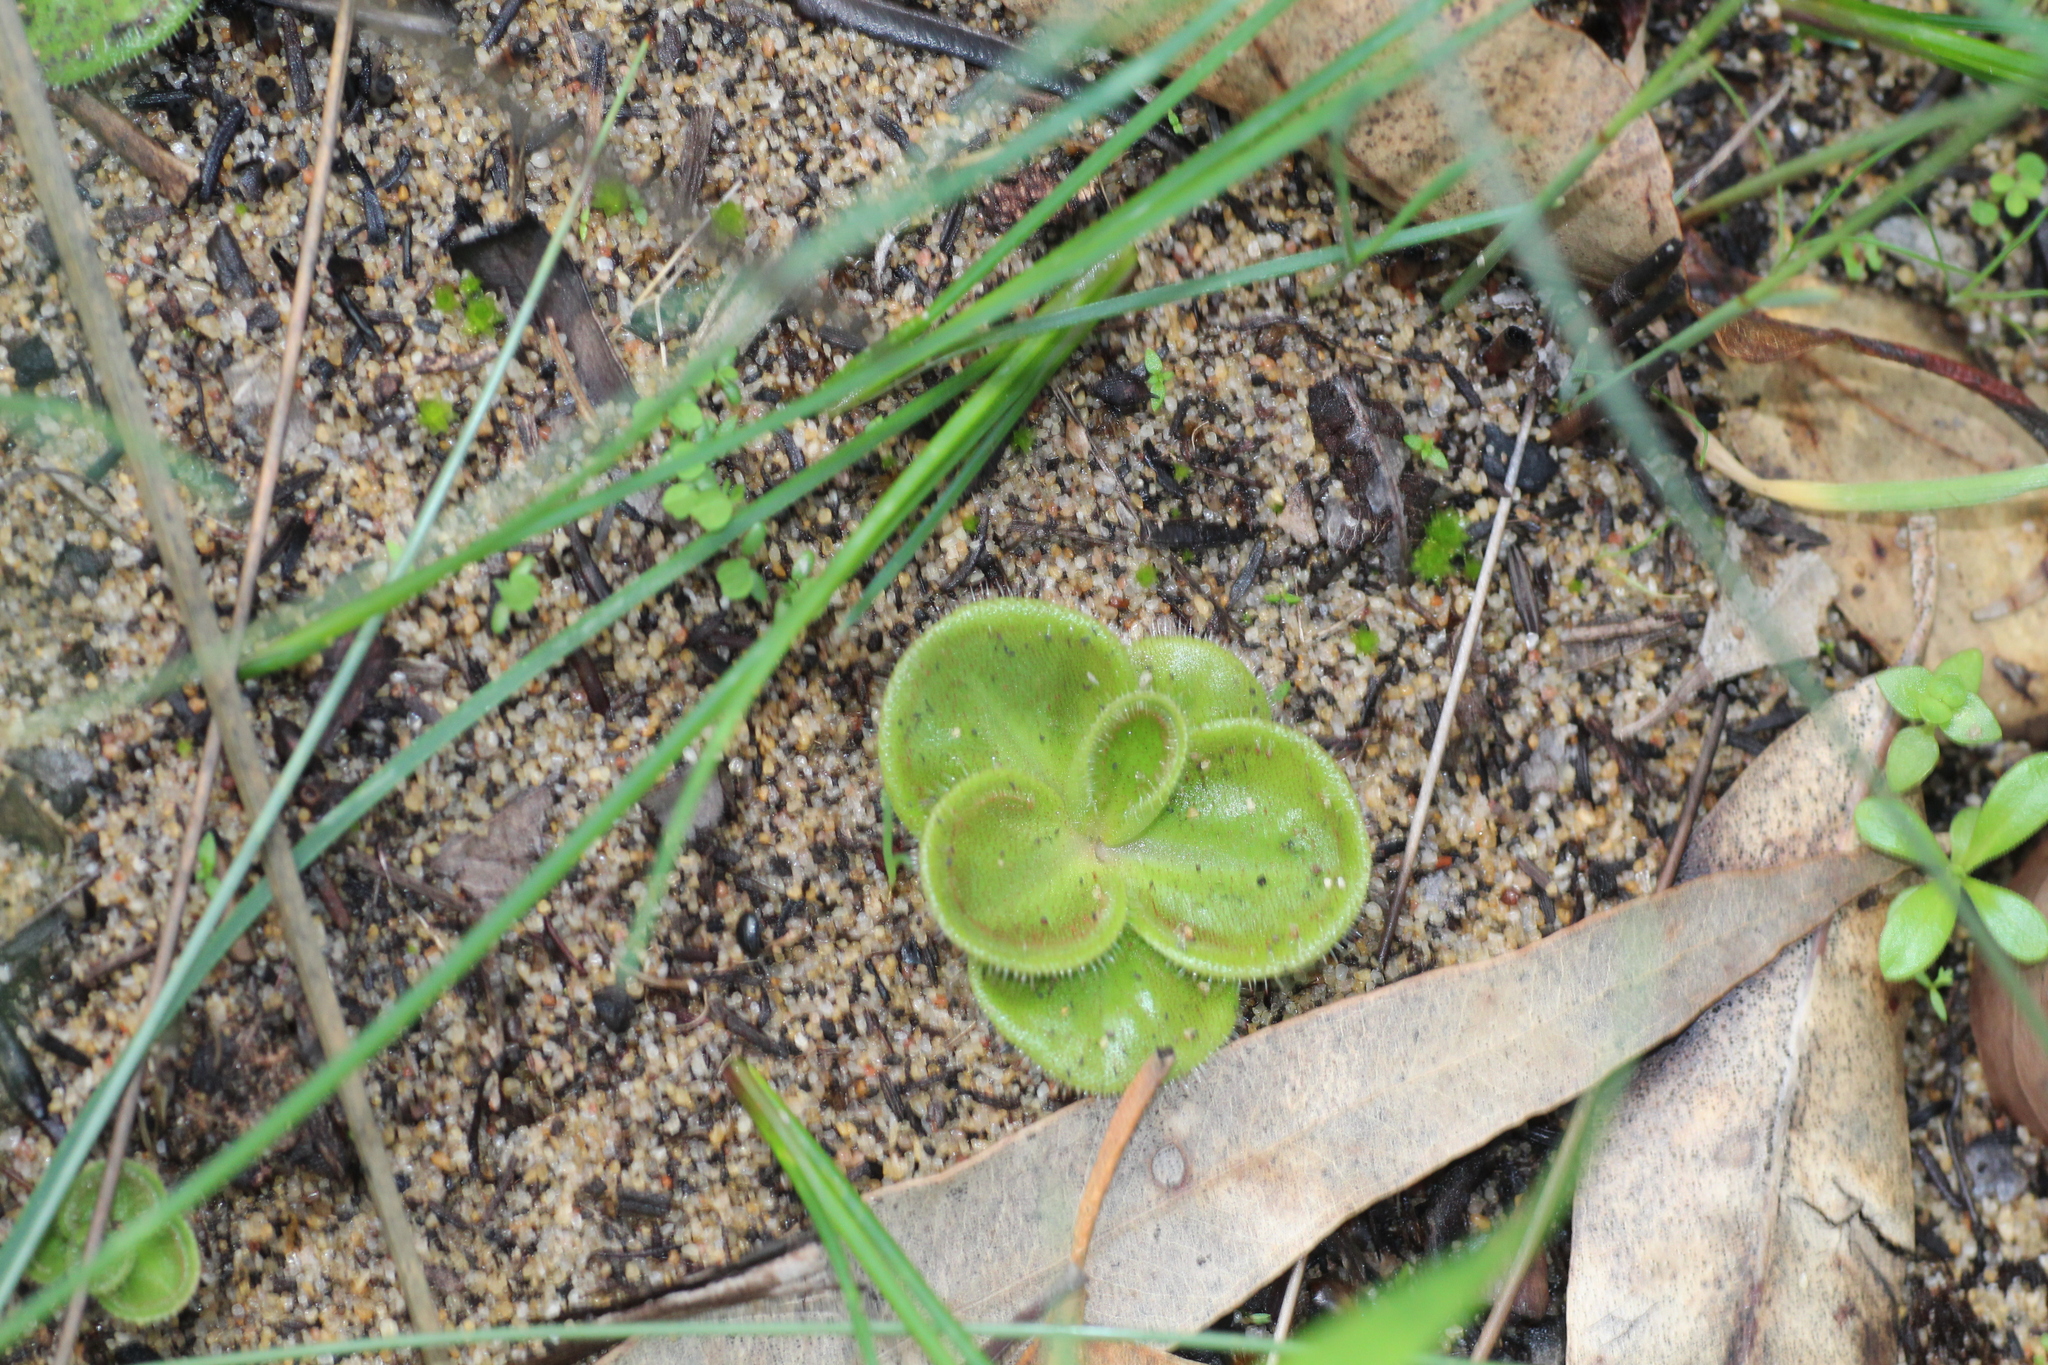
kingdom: Plantae
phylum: Tracheophyta
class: Magnoliopsida
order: Caryophyllales
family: Droseraceae
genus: Drosera
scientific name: Drosera erythrorhiza
